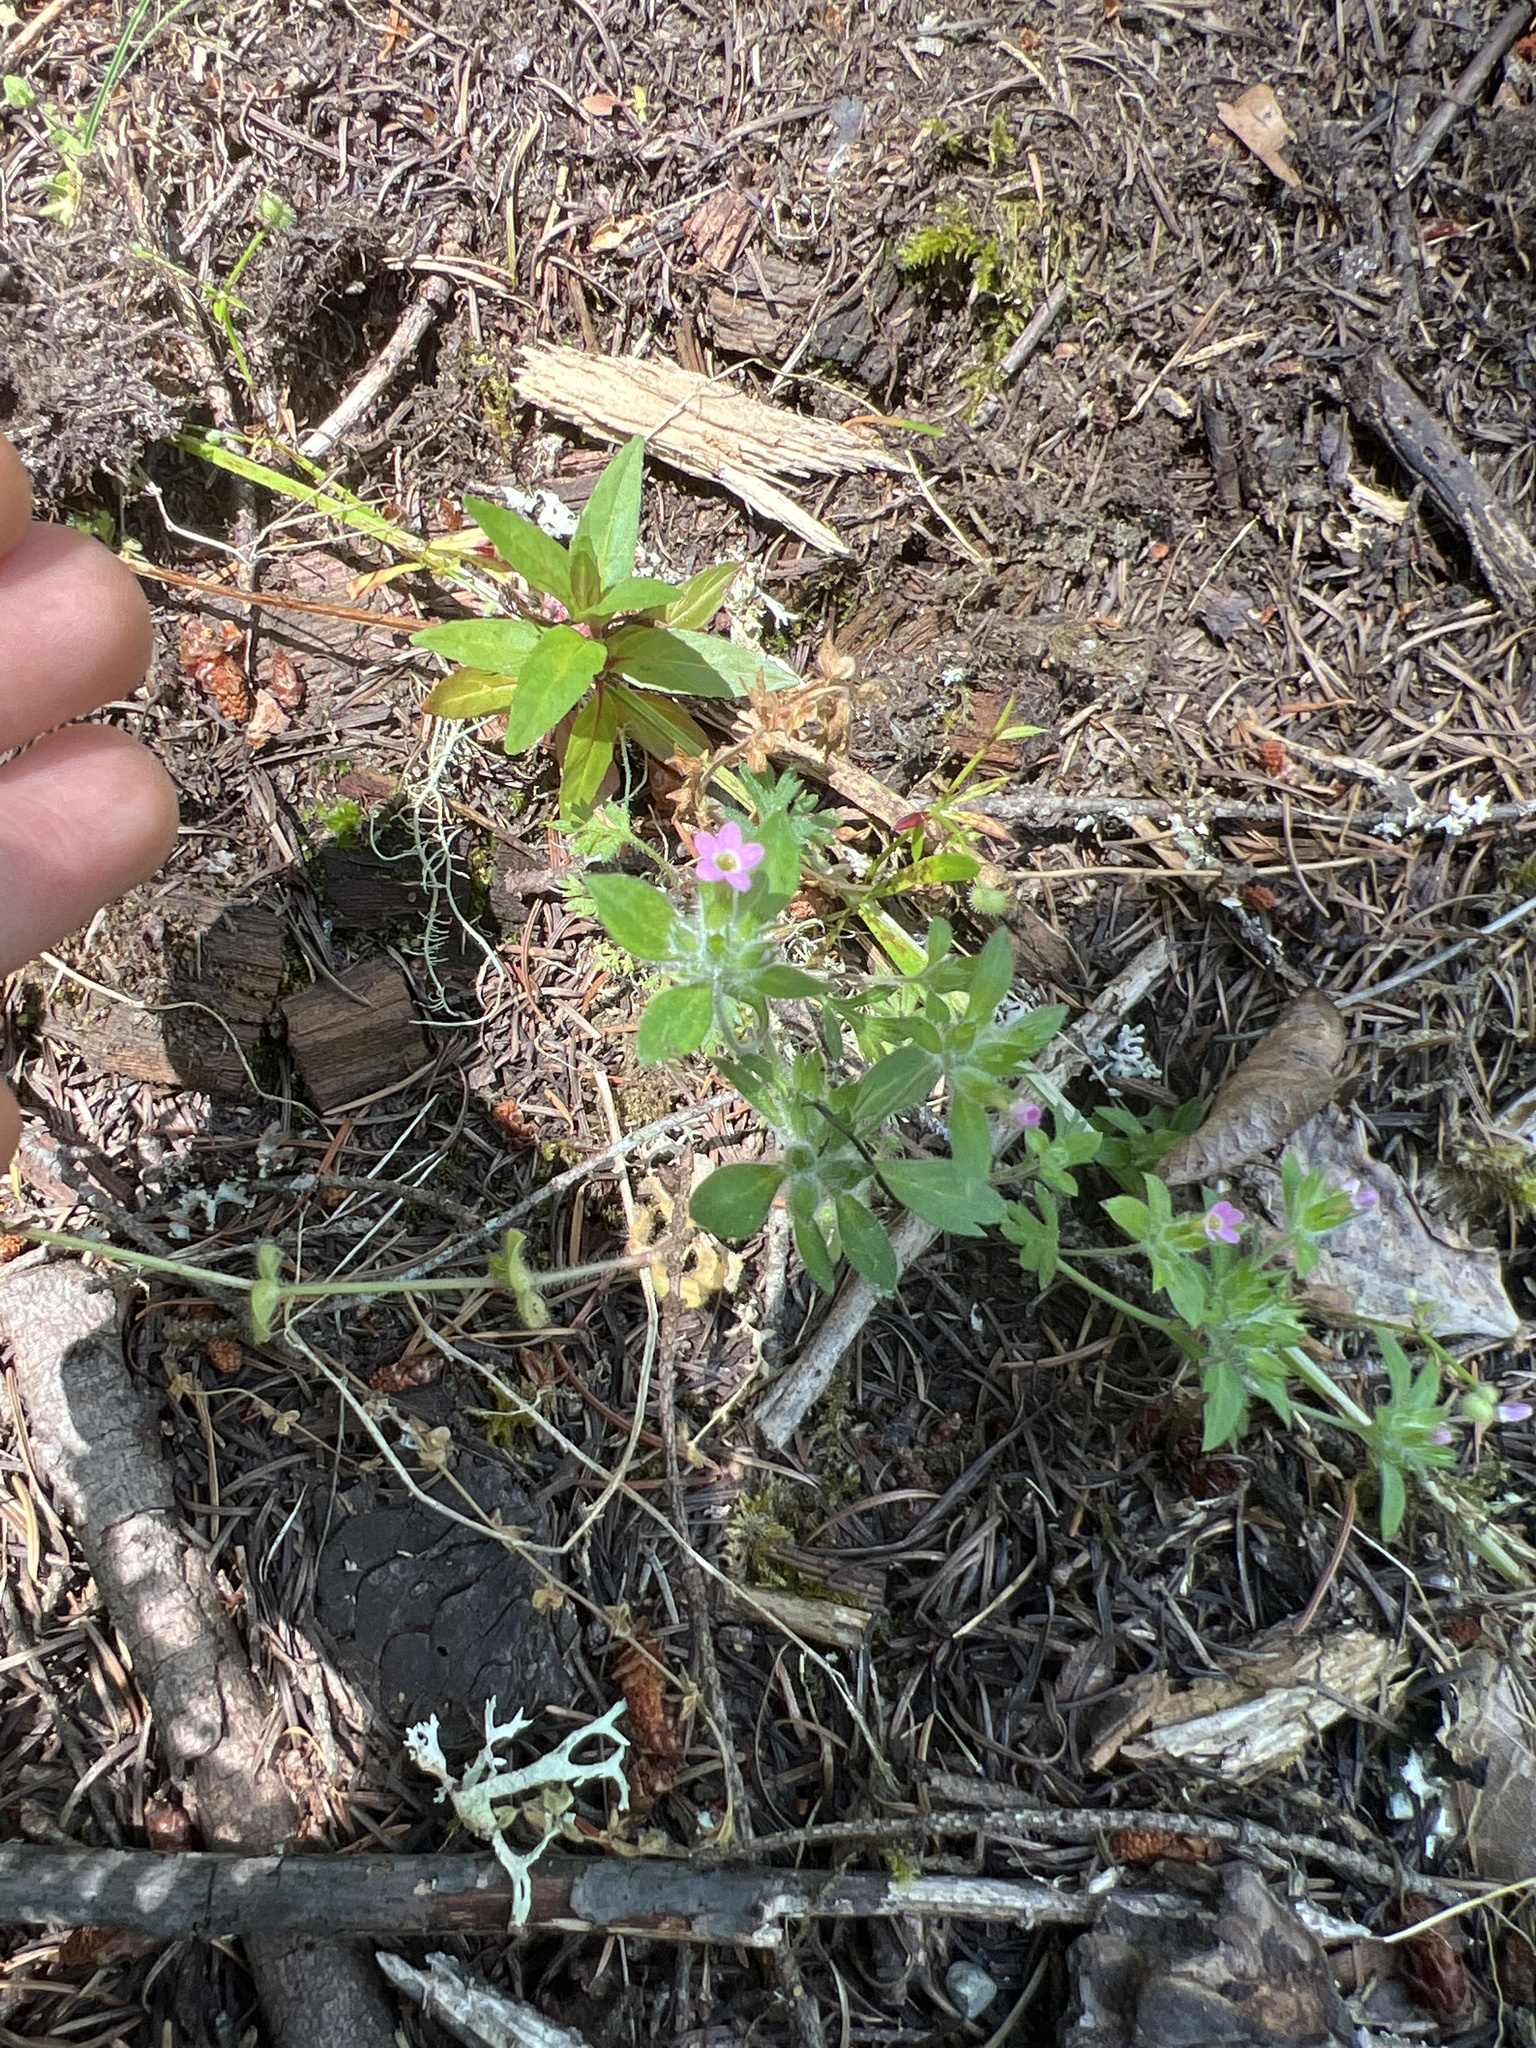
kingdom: Plantae
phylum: Tracheophyta
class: Magnoliopsida
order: Ericales
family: Polemoniaceae
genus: Collomia
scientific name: Collomia heterophylla
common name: Variable-leaved collomia
